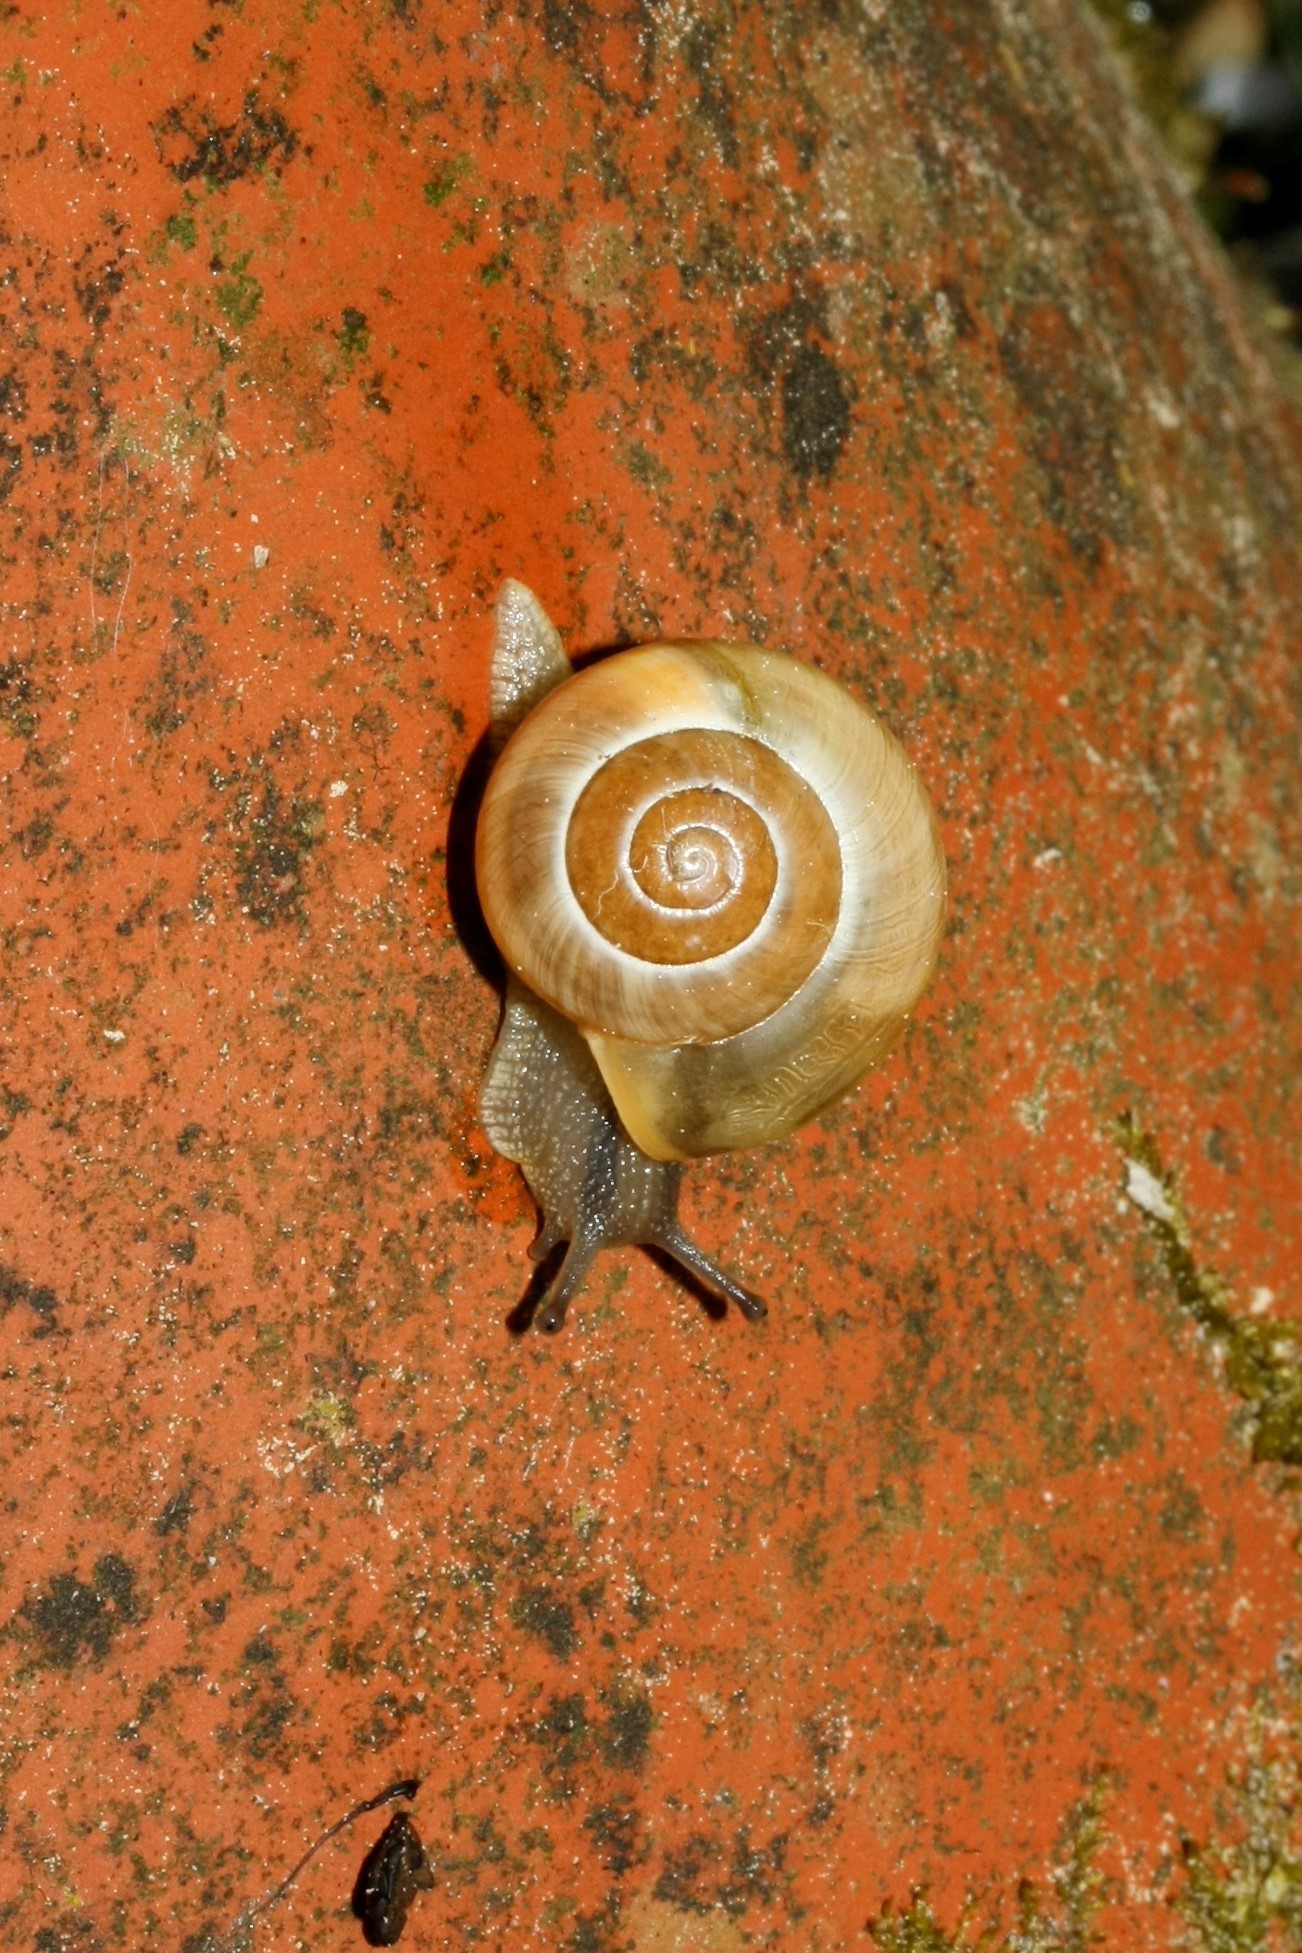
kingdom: Animalia
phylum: Mollusca
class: Gastropoda
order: Stylommatophora
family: Helicidae
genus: Cepaea
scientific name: Cepaea hortensis
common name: White-lip gardensnail
